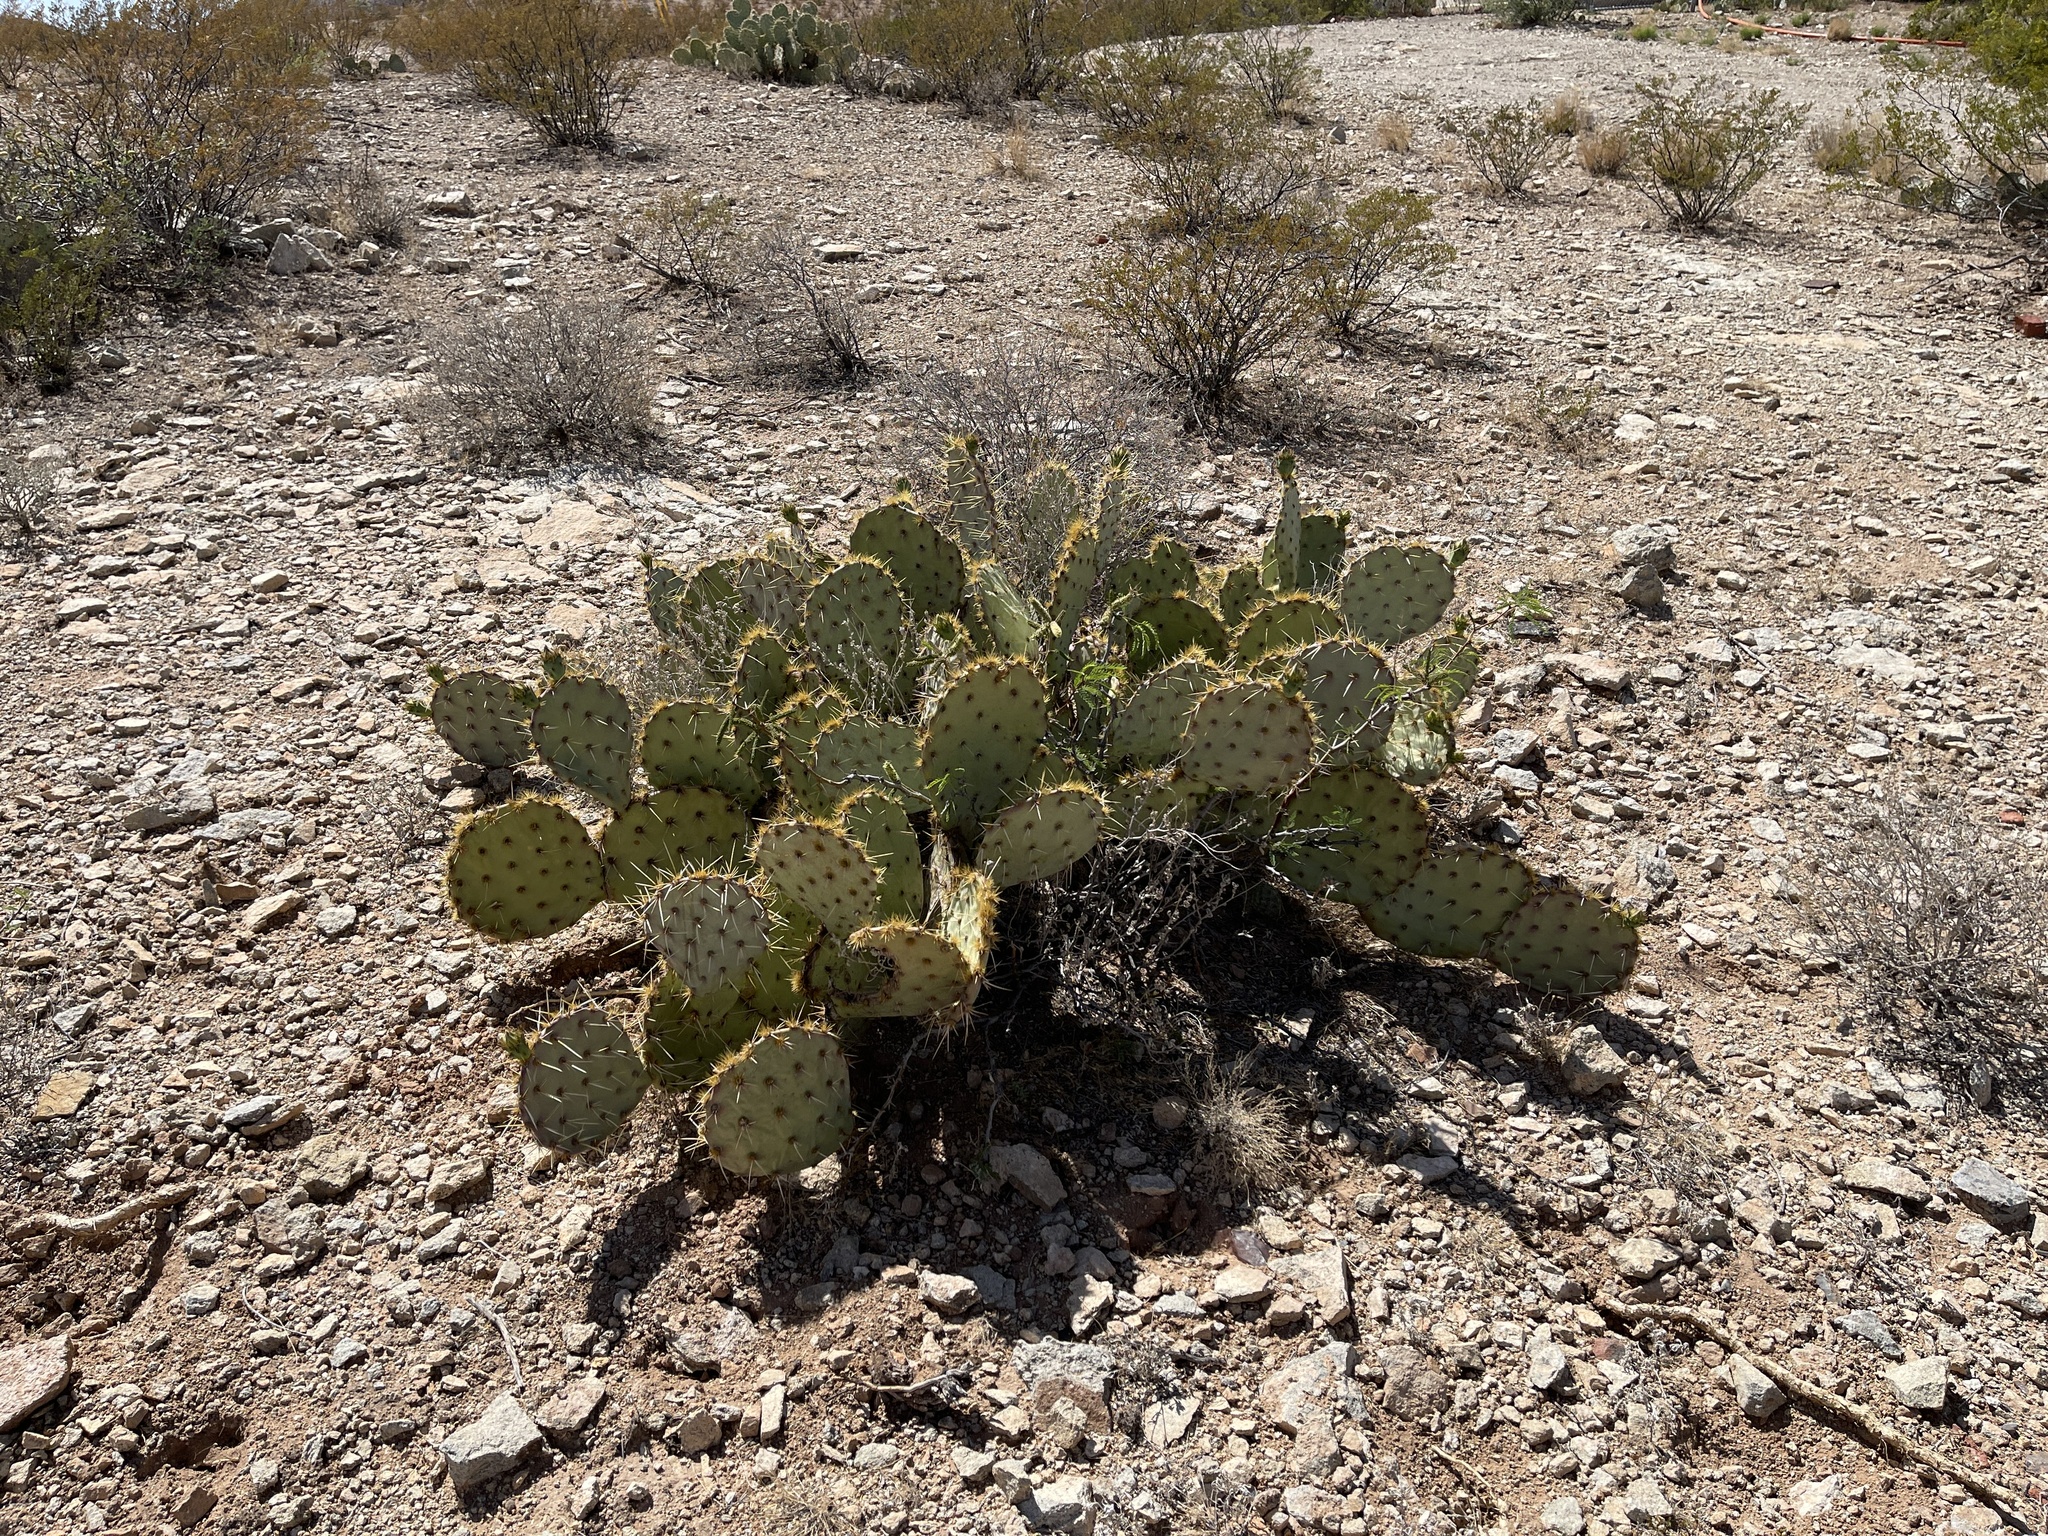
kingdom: Plantae
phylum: Tracheophyta
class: Magnoliopsida
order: Caryophyllales
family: Cactaceae
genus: Opuntia
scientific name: Opuntia engelmannii
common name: Cactus-apple
